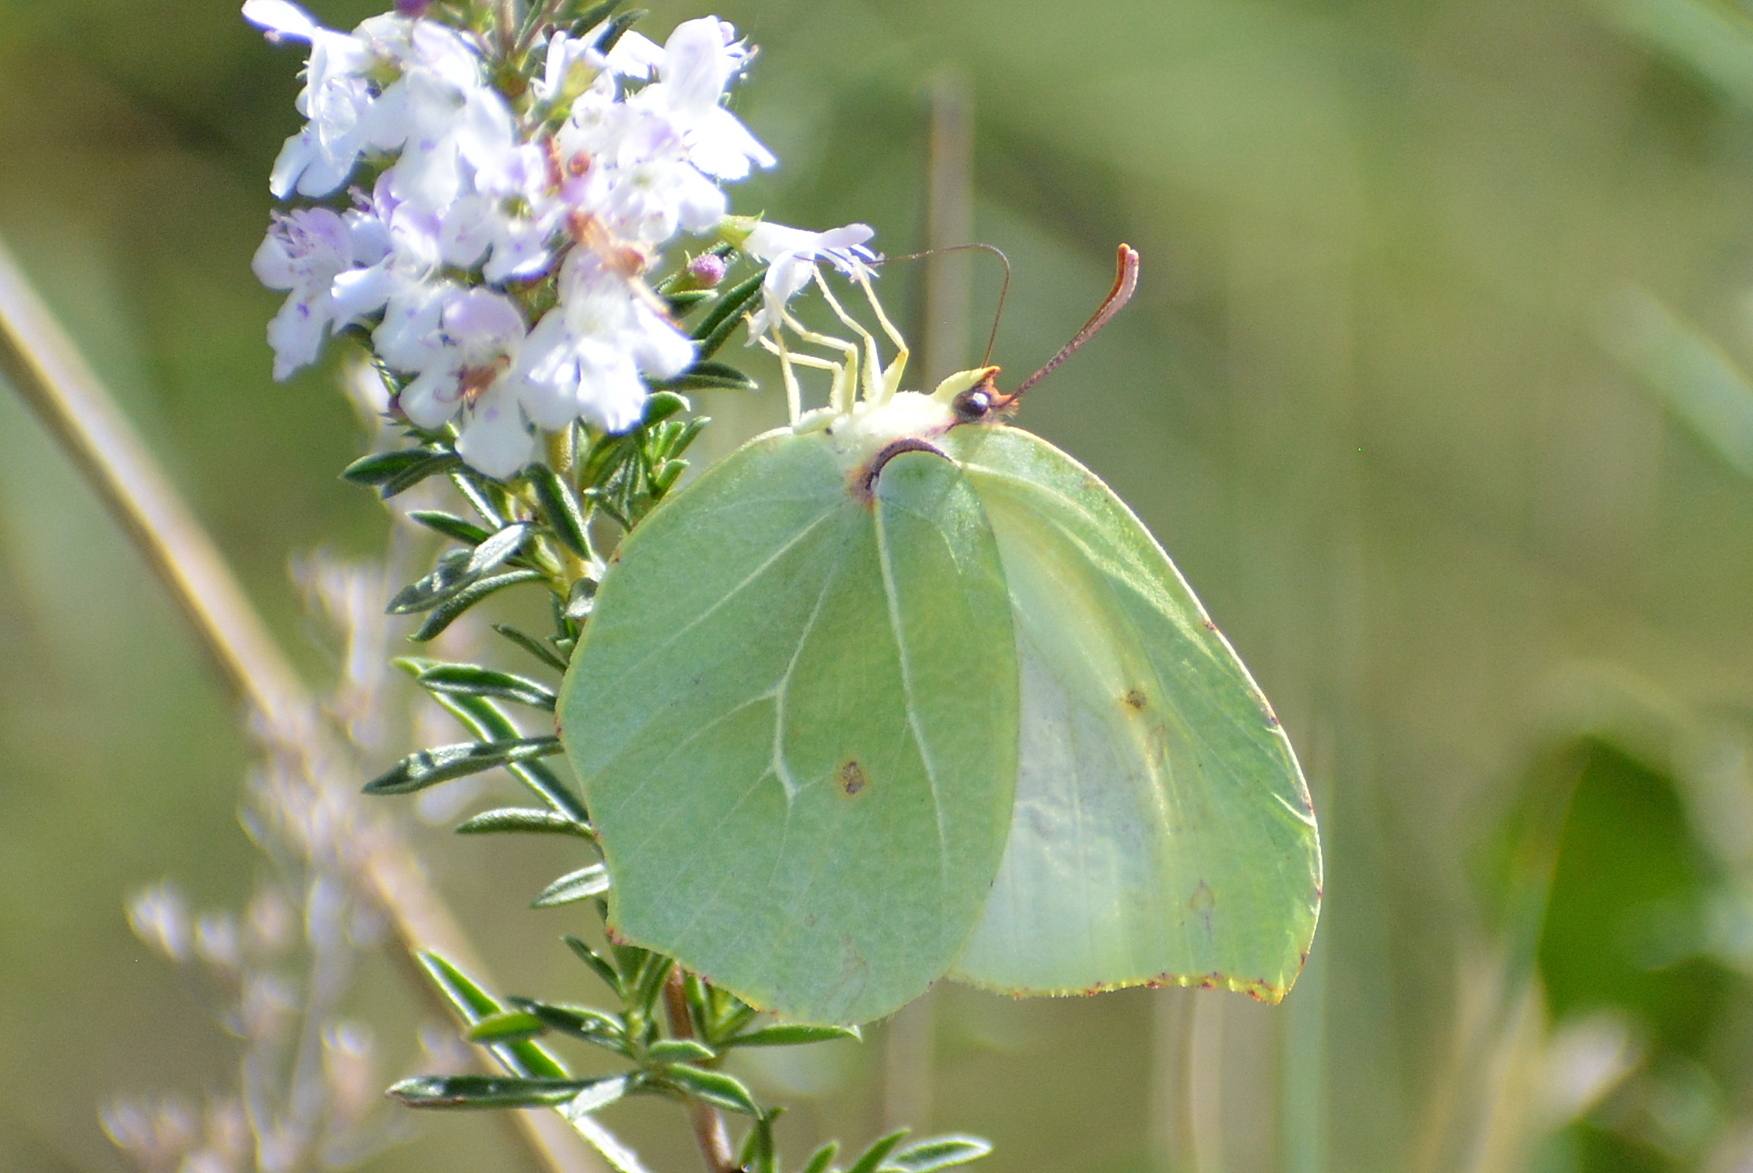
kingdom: Animalia
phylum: Arthropoda
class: Insecta
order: Lepidoptera
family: Pieridae
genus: Gonepteryx
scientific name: Gonepteryx cleopatra
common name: Cleopatra
